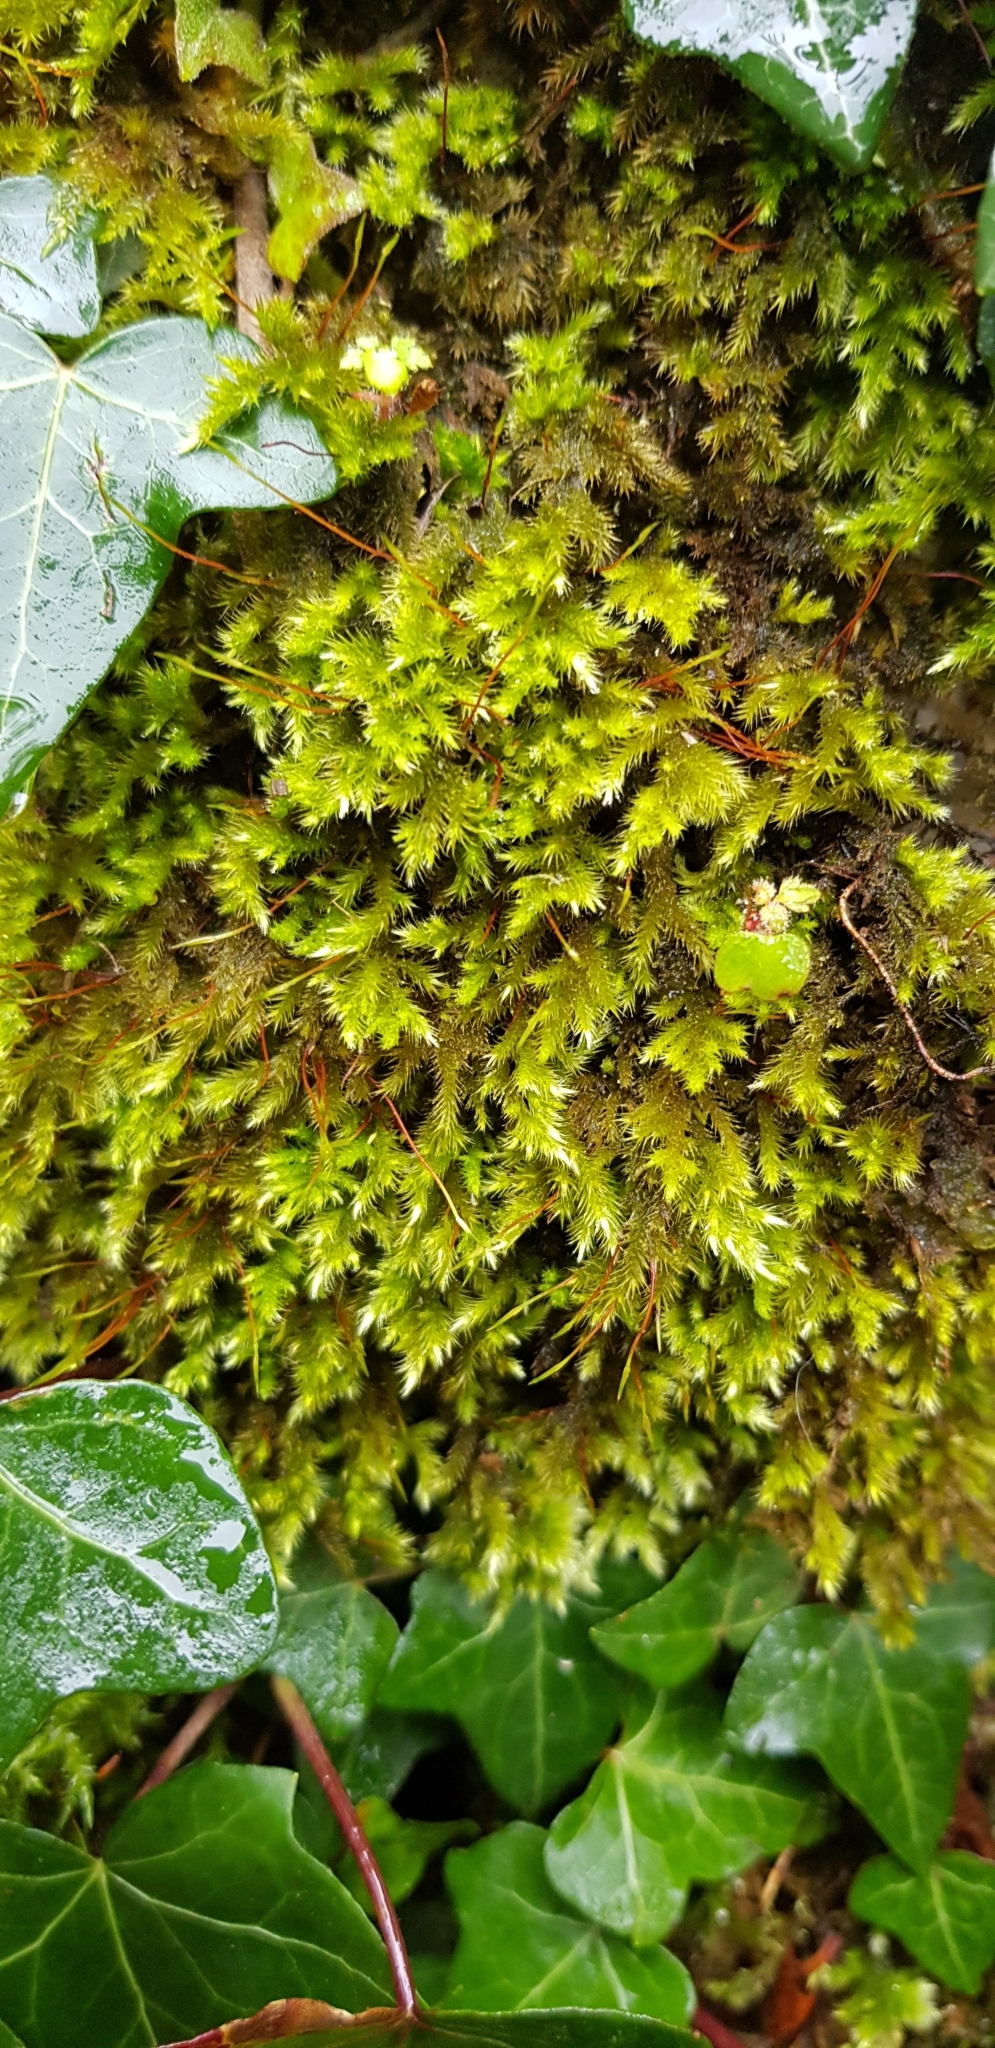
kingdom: Plantae
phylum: Bryophyta
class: Bryopsida
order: Hypnales
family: Brachytheciaceae
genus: Homalothecium
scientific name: Homalothecium sericeum
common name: Silky wall feather-moss
